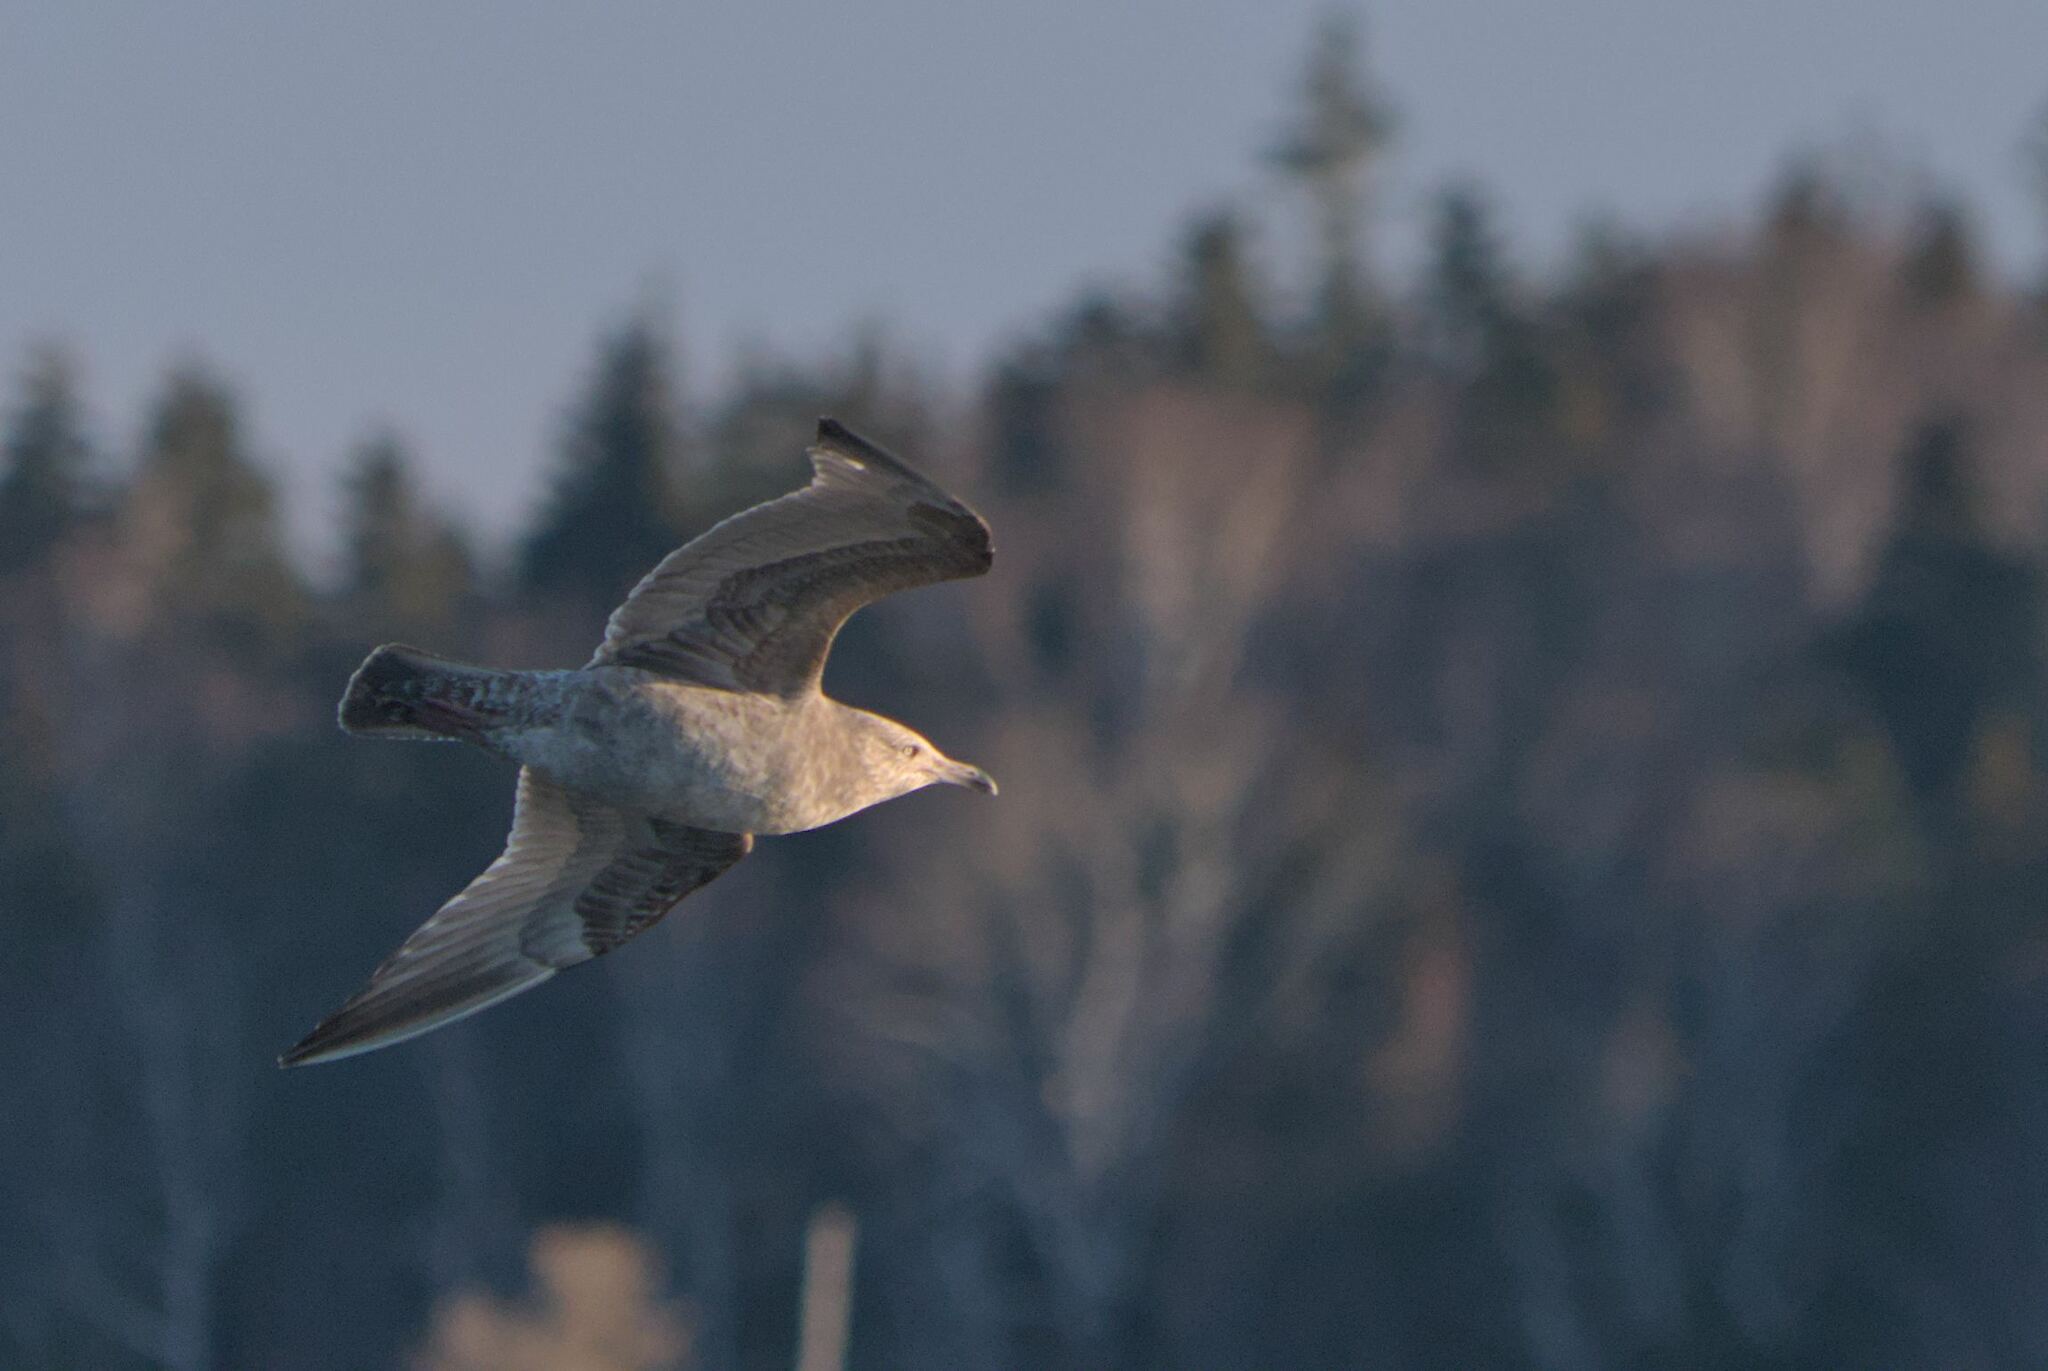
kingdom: Animalia
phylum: Chordata
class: Aves
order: Charadriiformes
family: Laridae
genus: Larus
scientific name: Larus argentatus
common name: Herring gull
